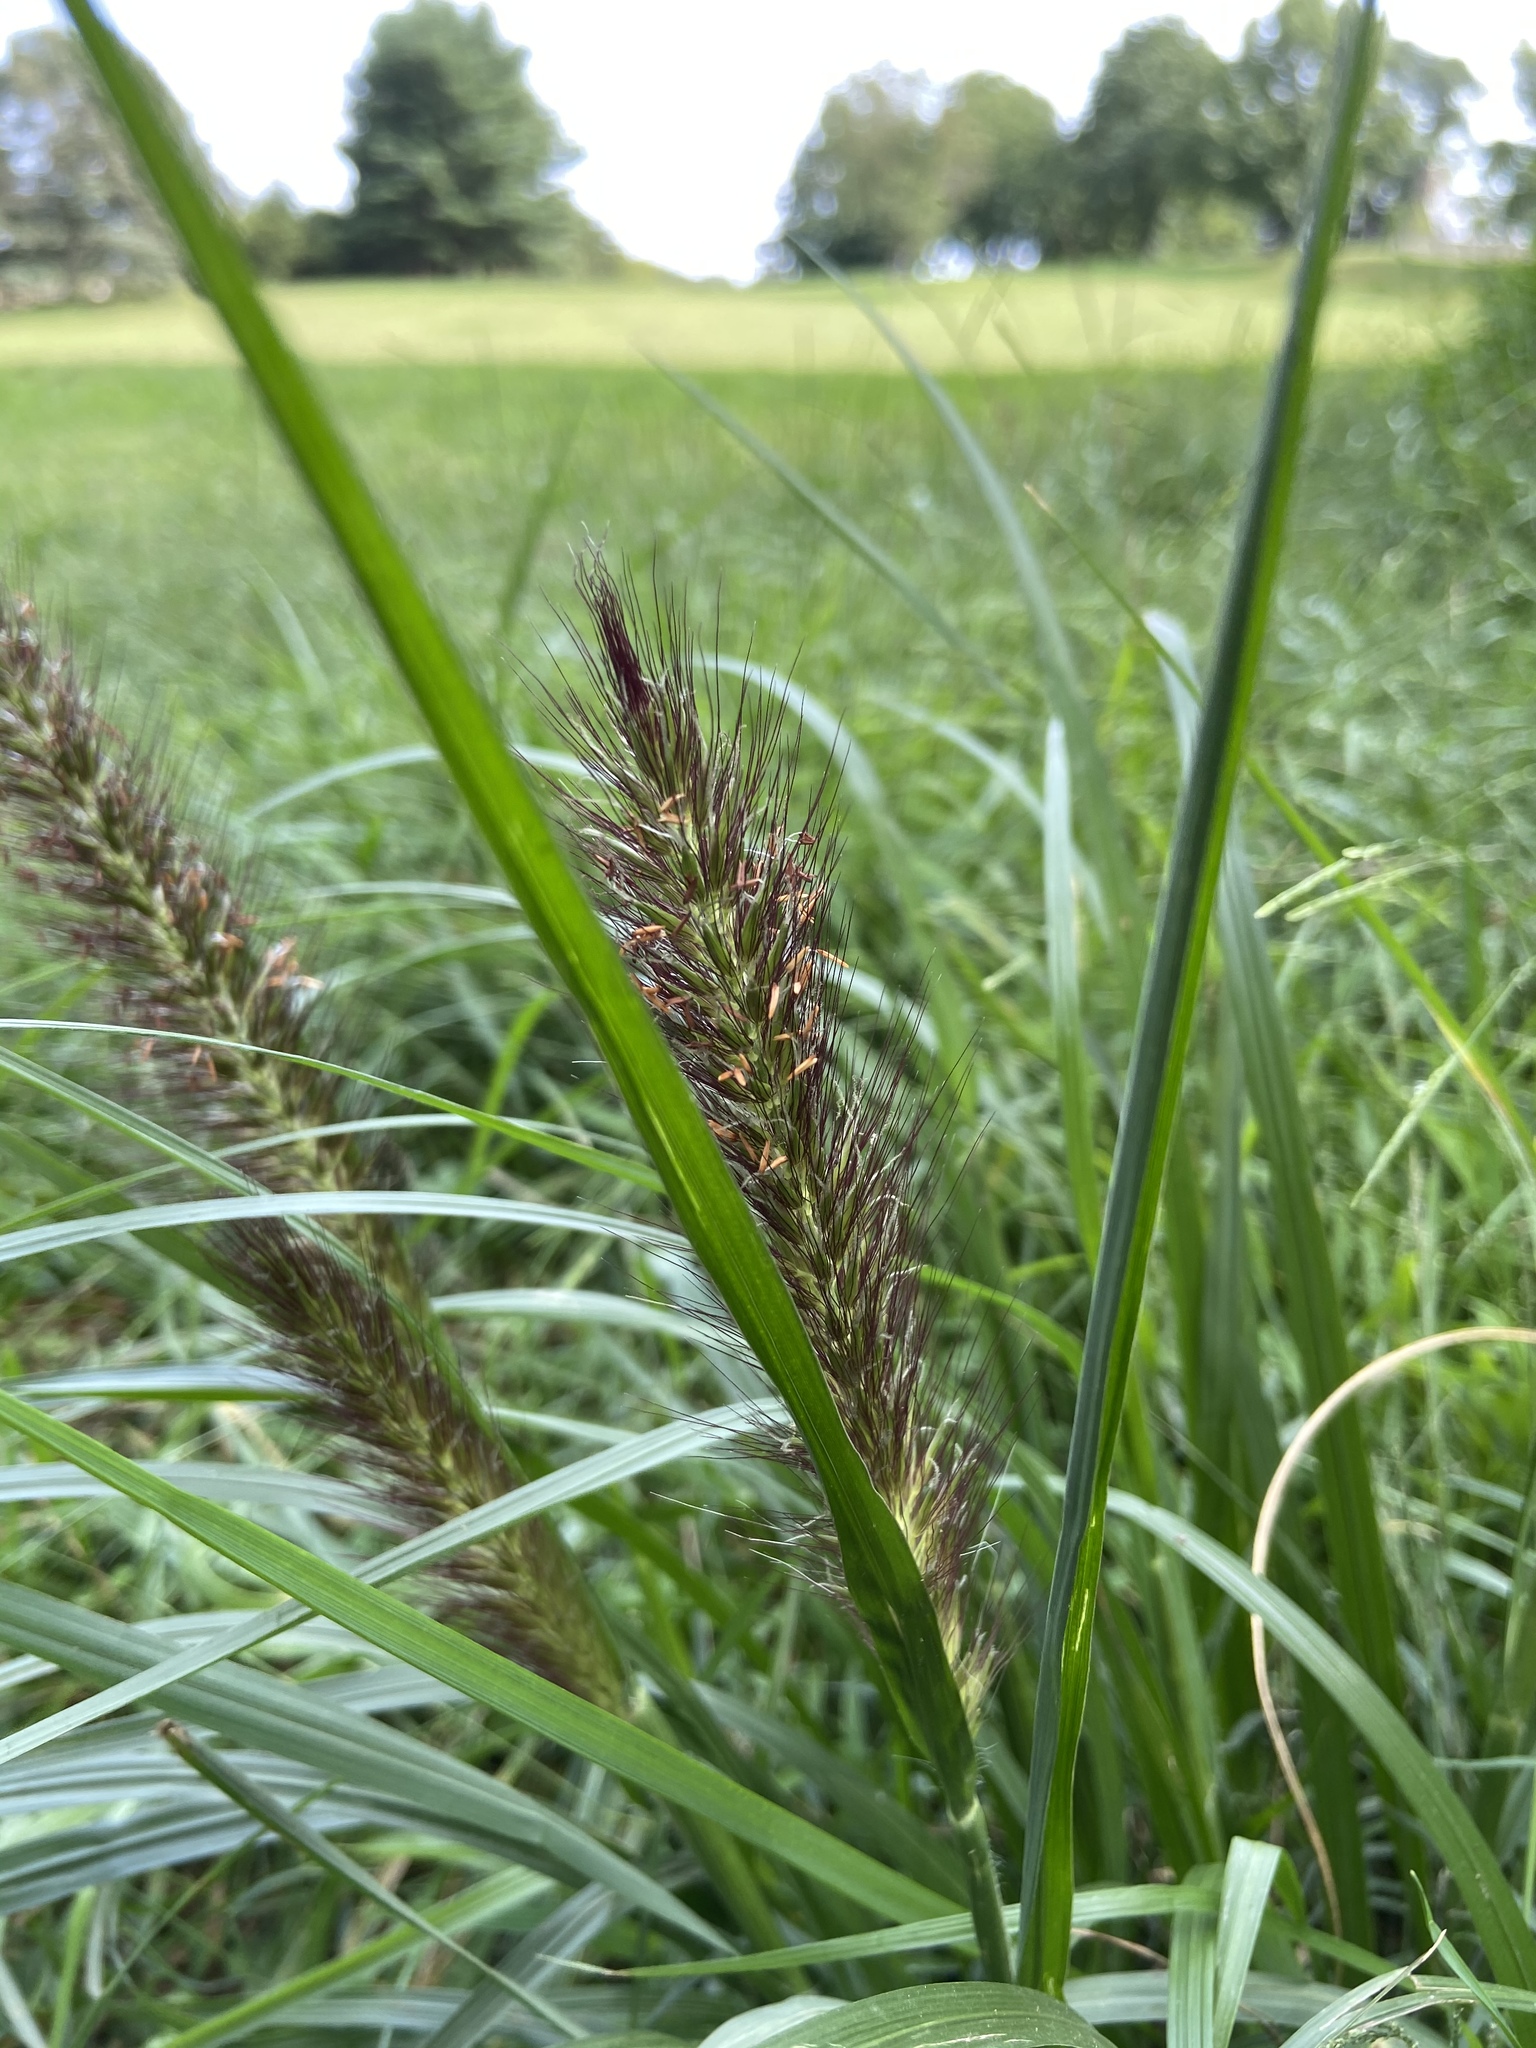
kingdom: Plantae
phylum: Tracheophyta
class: Liliopsida
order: Poales
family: Poaceae
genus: Cenchrus
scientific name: Cenchrus alopecuroides
